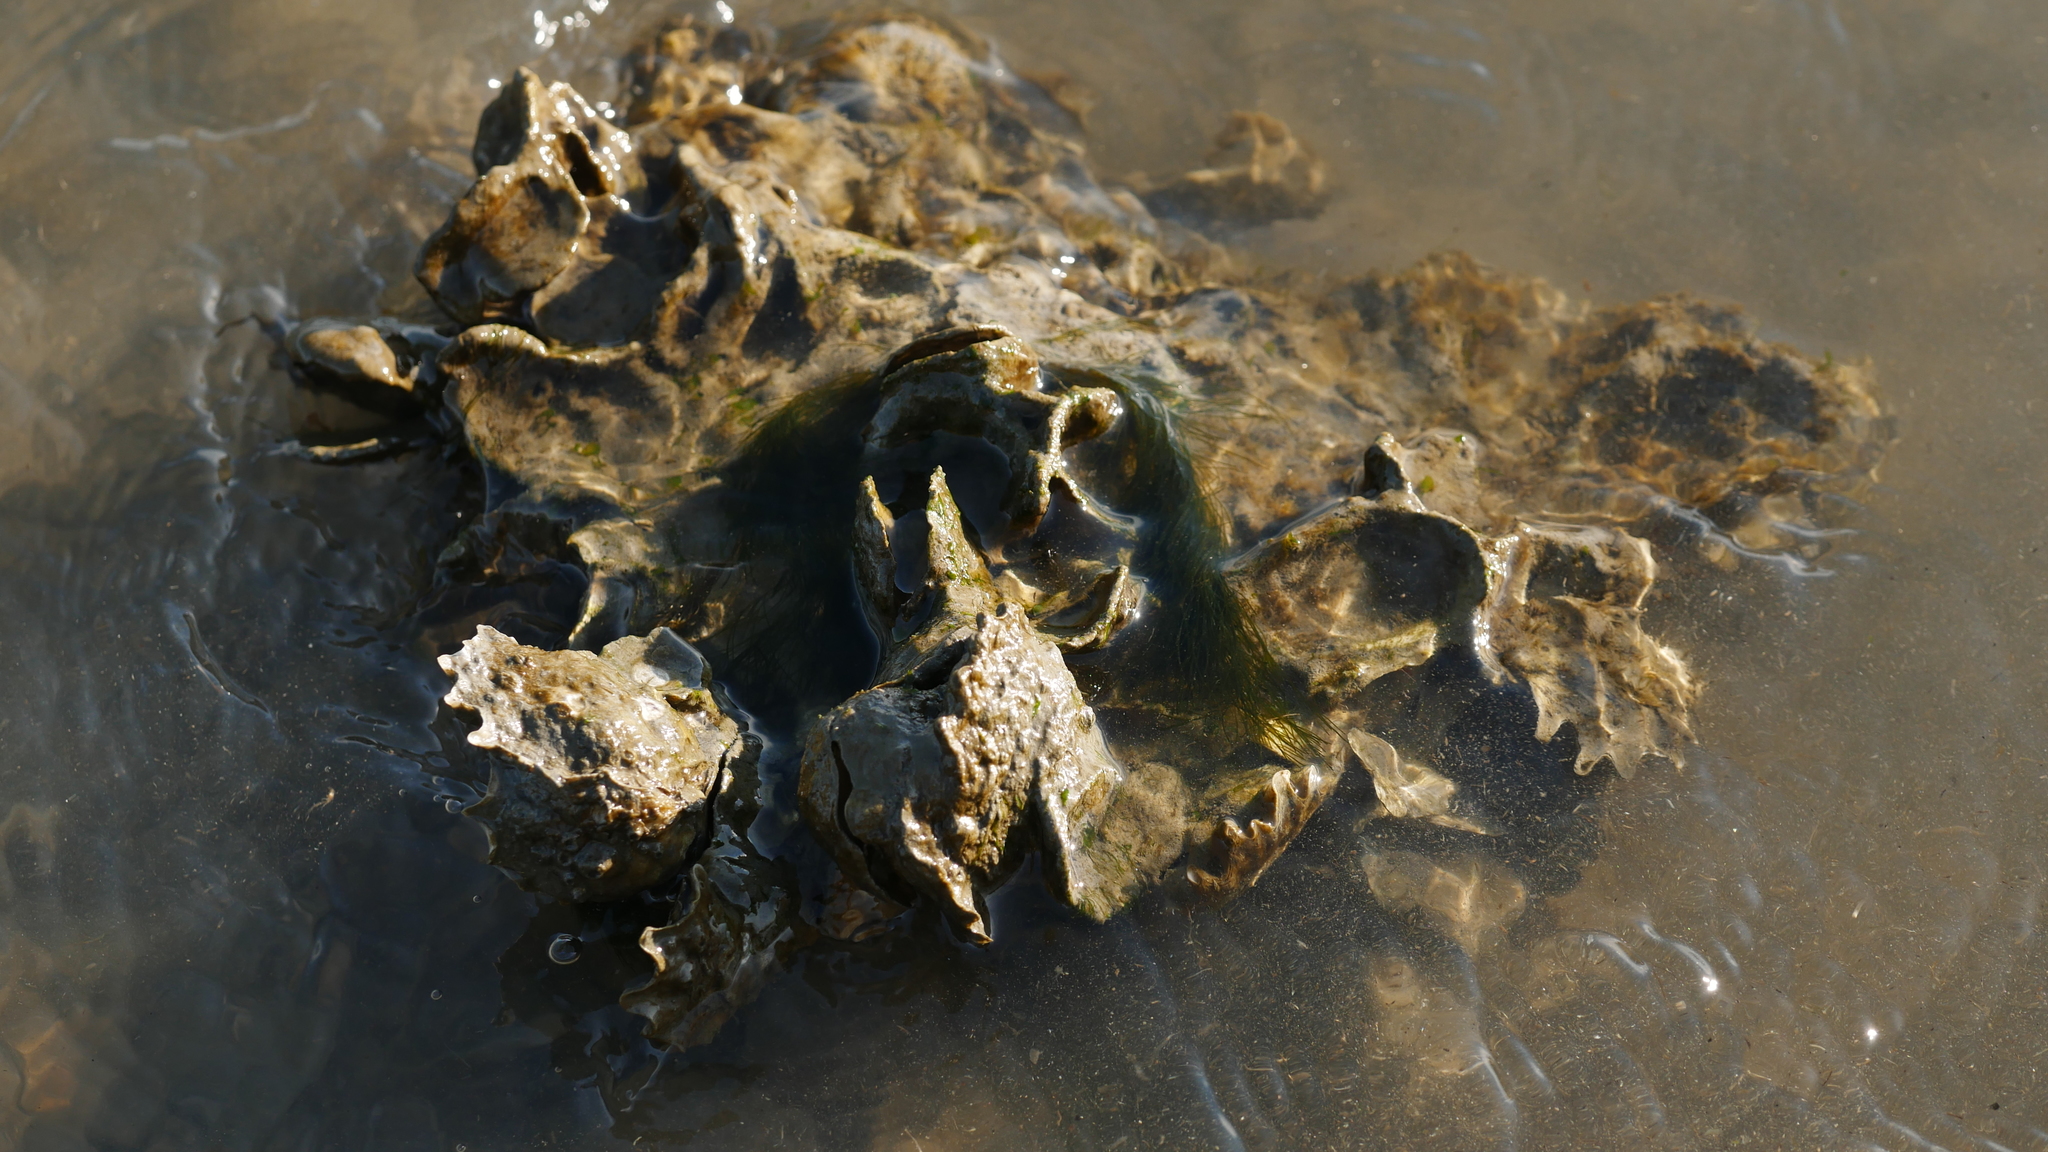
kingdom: Animalia
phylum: Mollusca
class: Bivalvia
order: Ostreida
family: Ostreidae
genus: Crassostrea
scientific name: Crassostrea virginica
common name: American oyster
